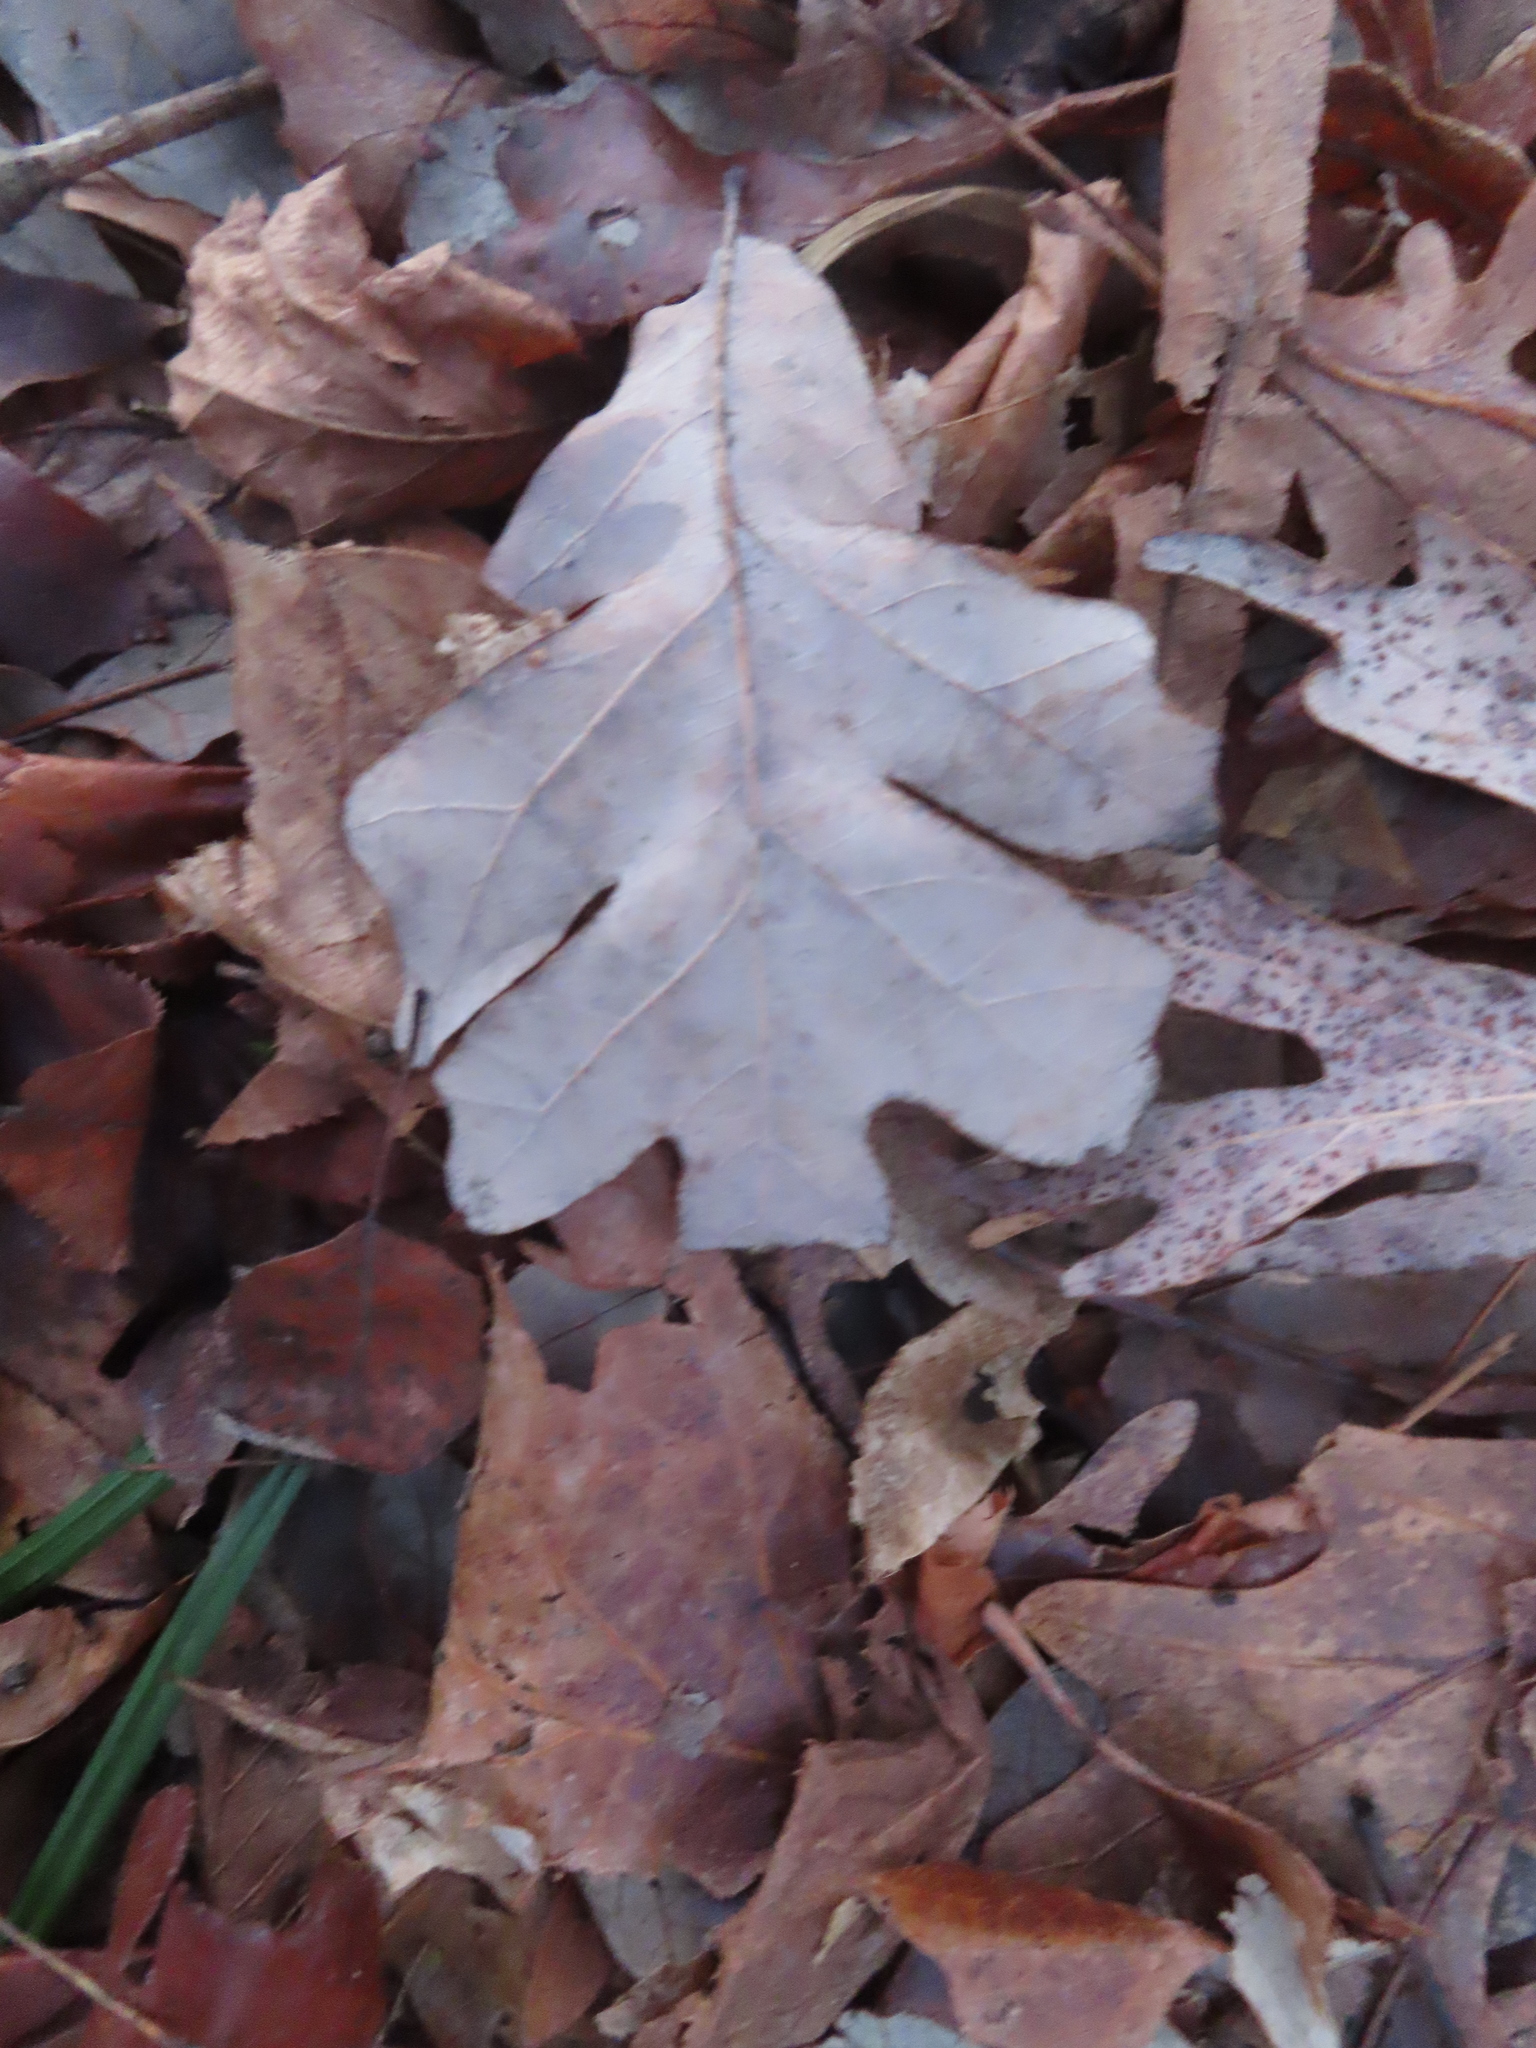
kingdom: Plantae
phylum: Tracheophyta
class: Magnoliopsida
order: Fagales
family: Fagaceae
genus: Quercus
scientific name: Quercus alba
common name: White oak
